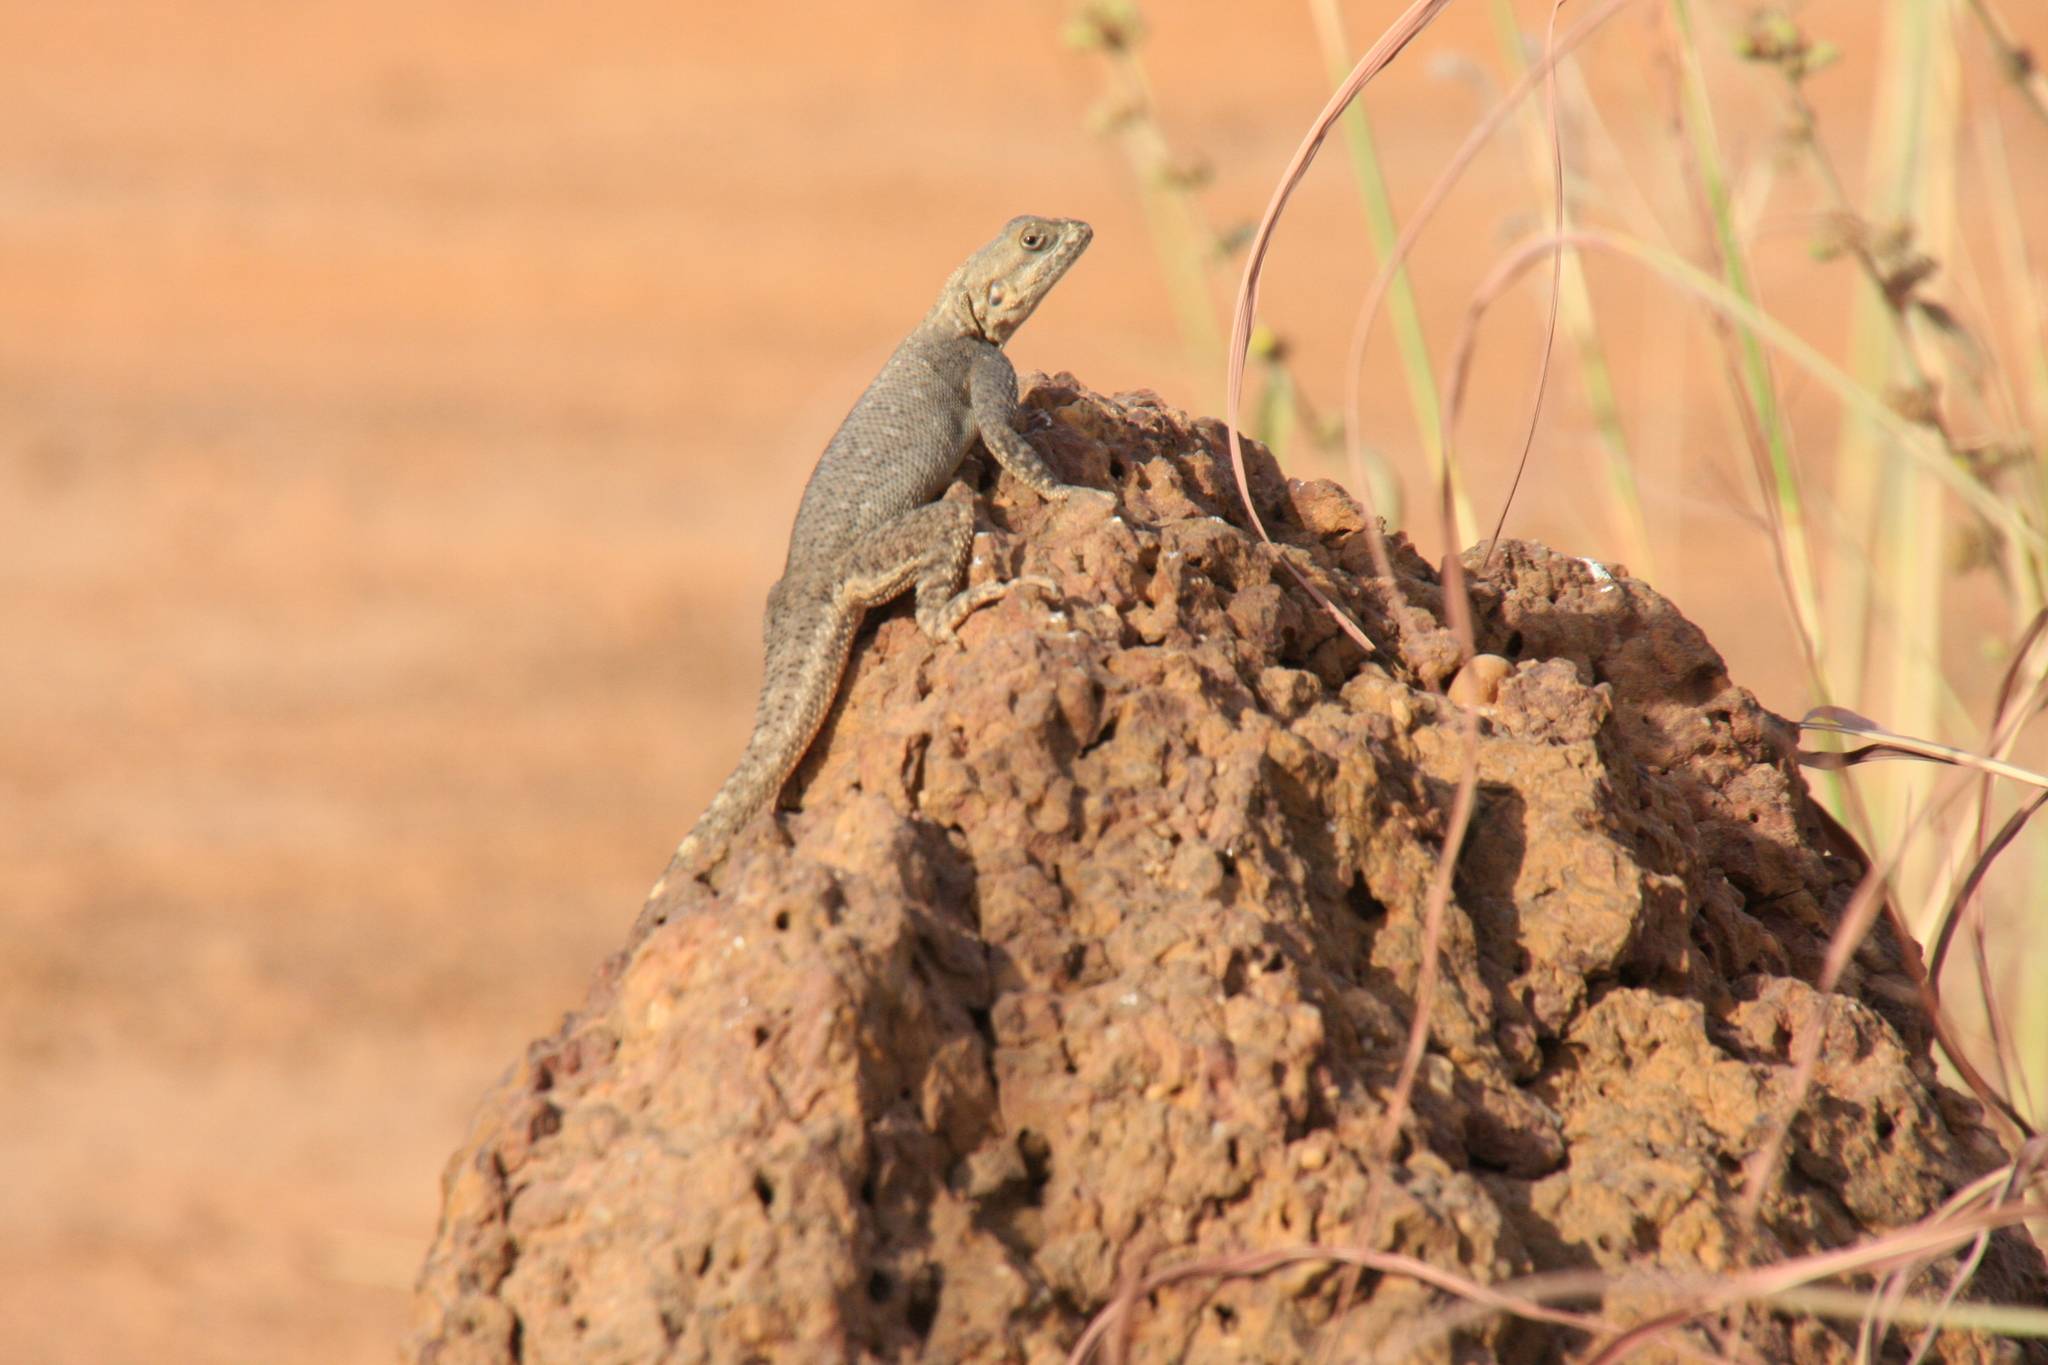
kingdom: Animalia
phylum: Chordata
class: Squamata
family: Agamidae
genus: Agama
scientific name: Agama paragama
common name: False agama
